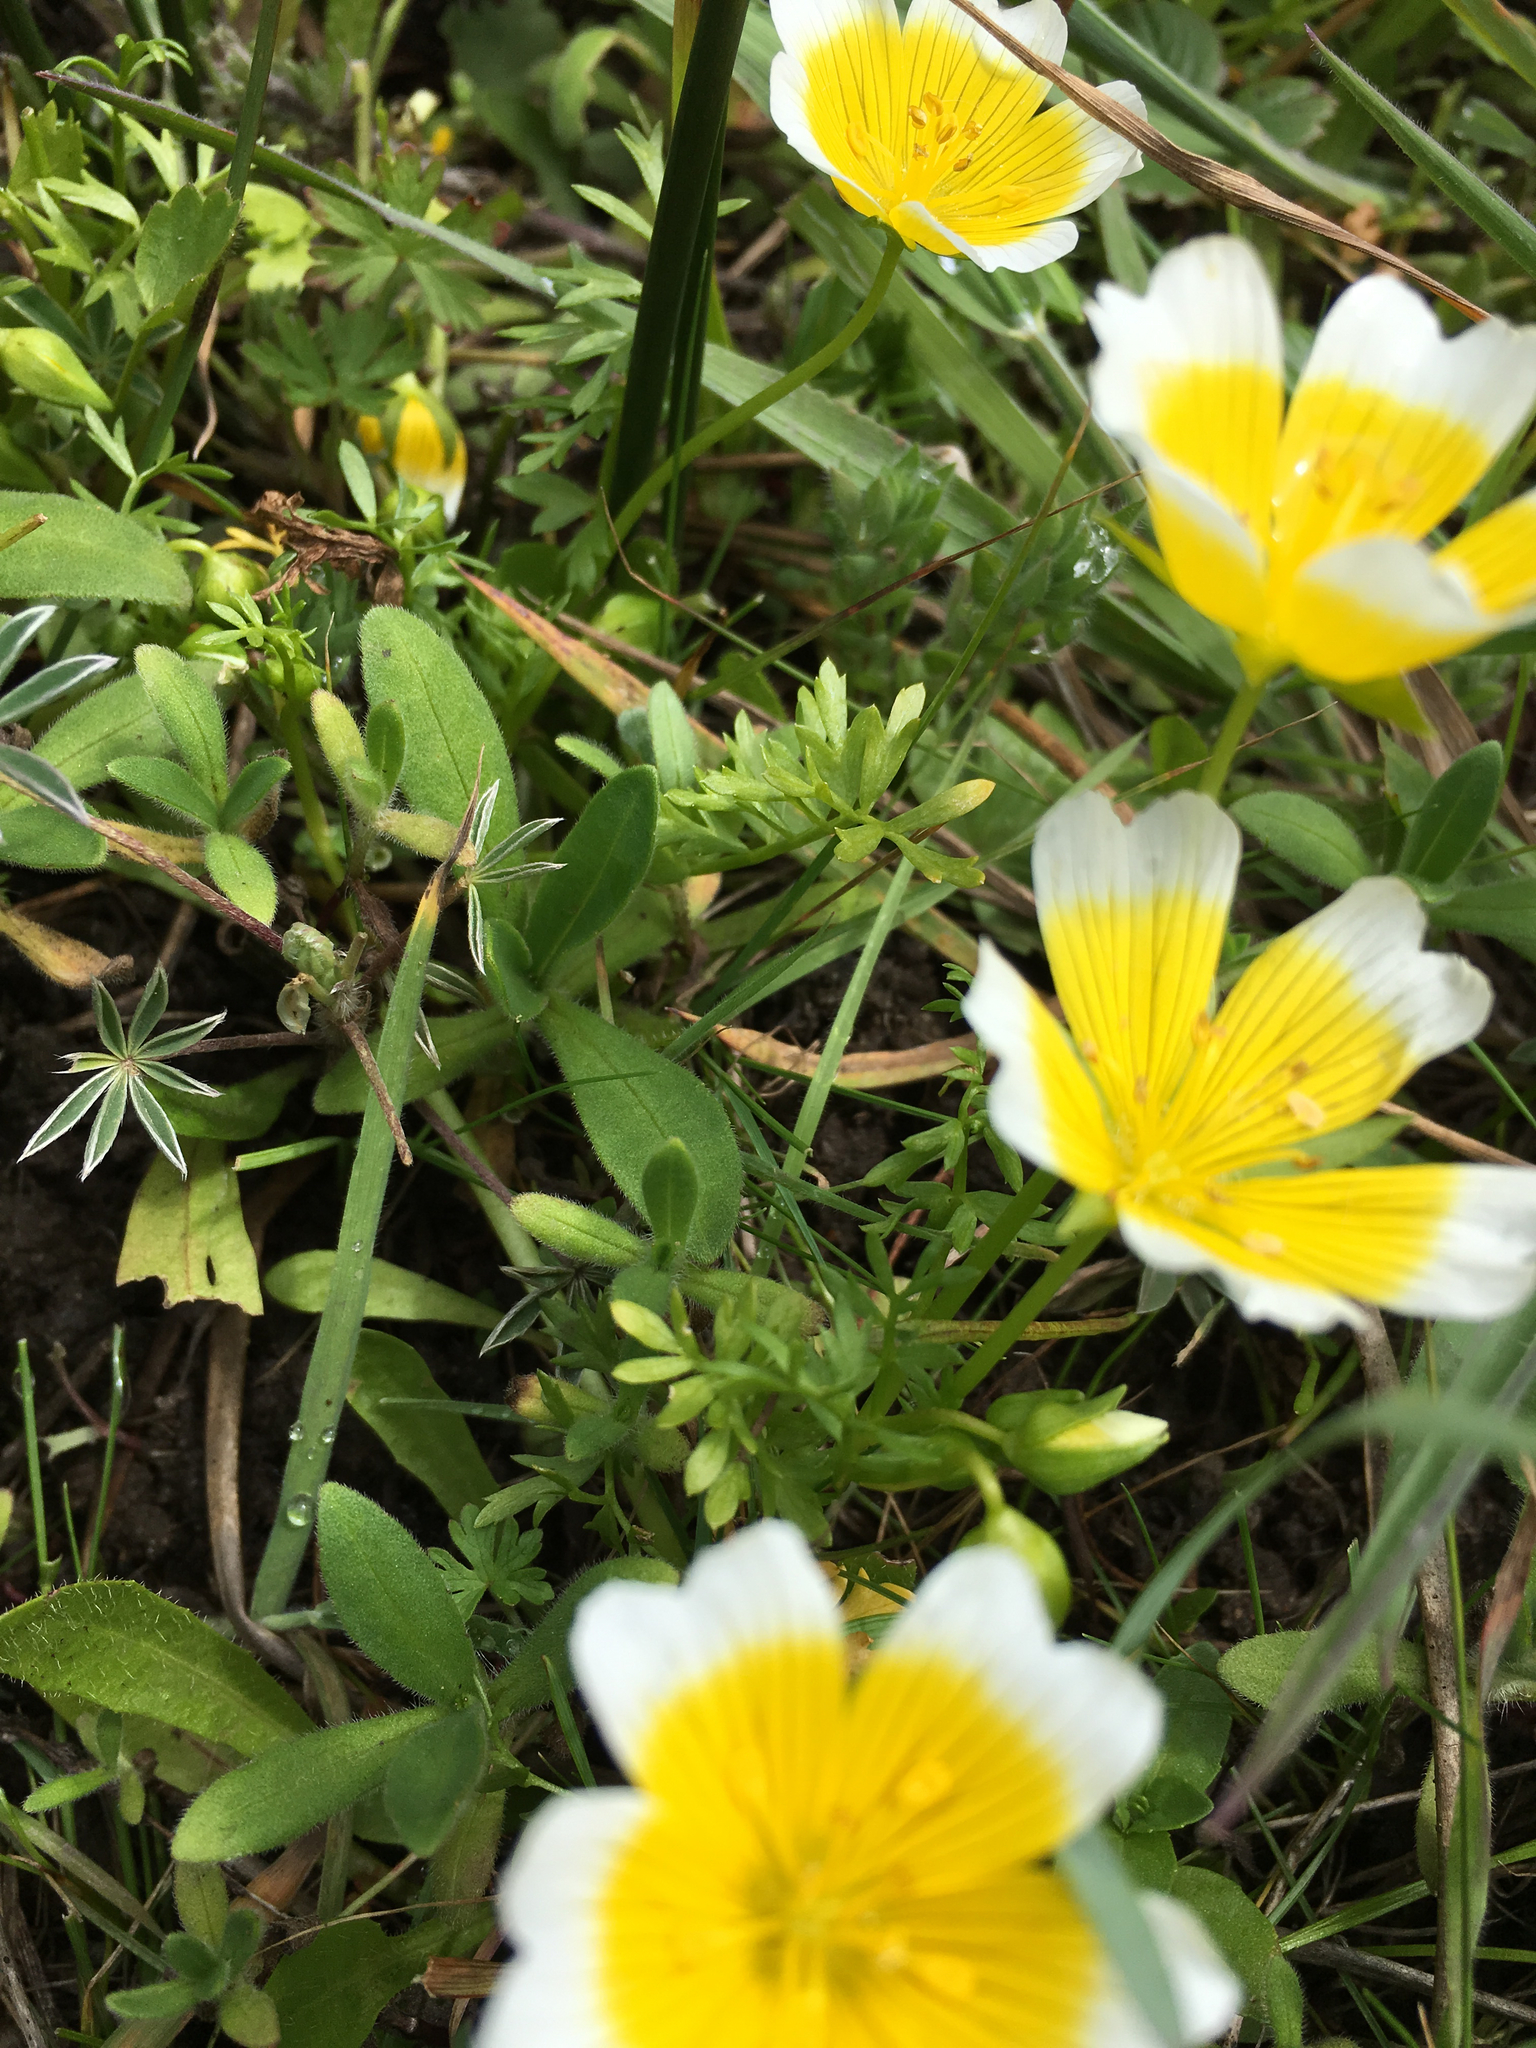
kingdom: Plantae
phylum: Tracheophyta
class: Magnoliopsida
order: Brassicales
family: Limnanthaceae
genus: Limnanthes
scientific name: Limnanthes douglasii
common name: Meadow-foam
